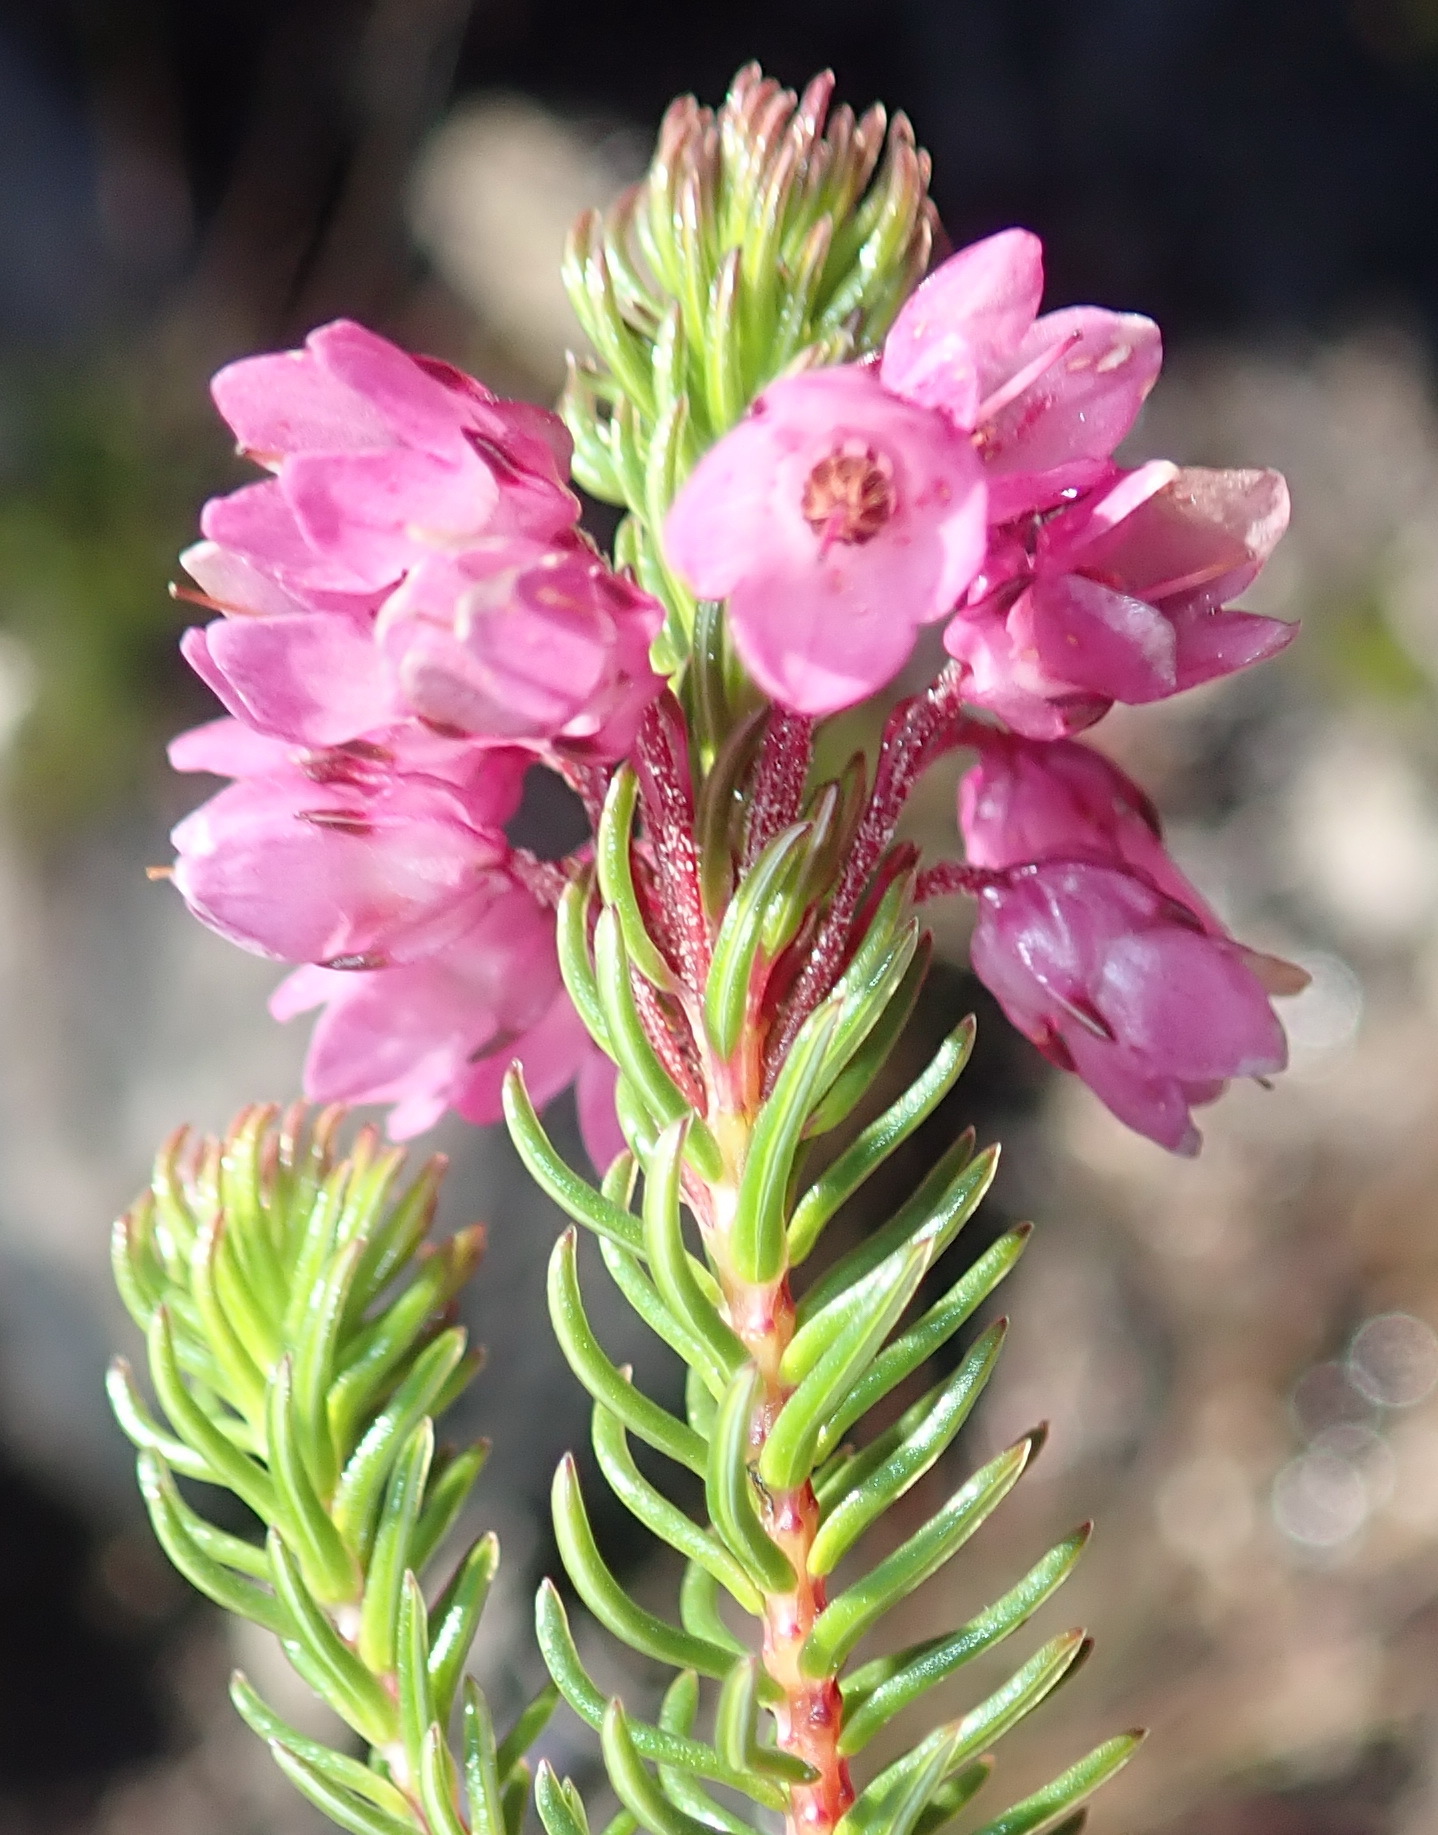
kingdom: Plantae
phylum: Tracheophyta
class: Magnoliopsida
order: Ericales
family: Ericaceae
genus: Erica
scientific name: Erica cubica
